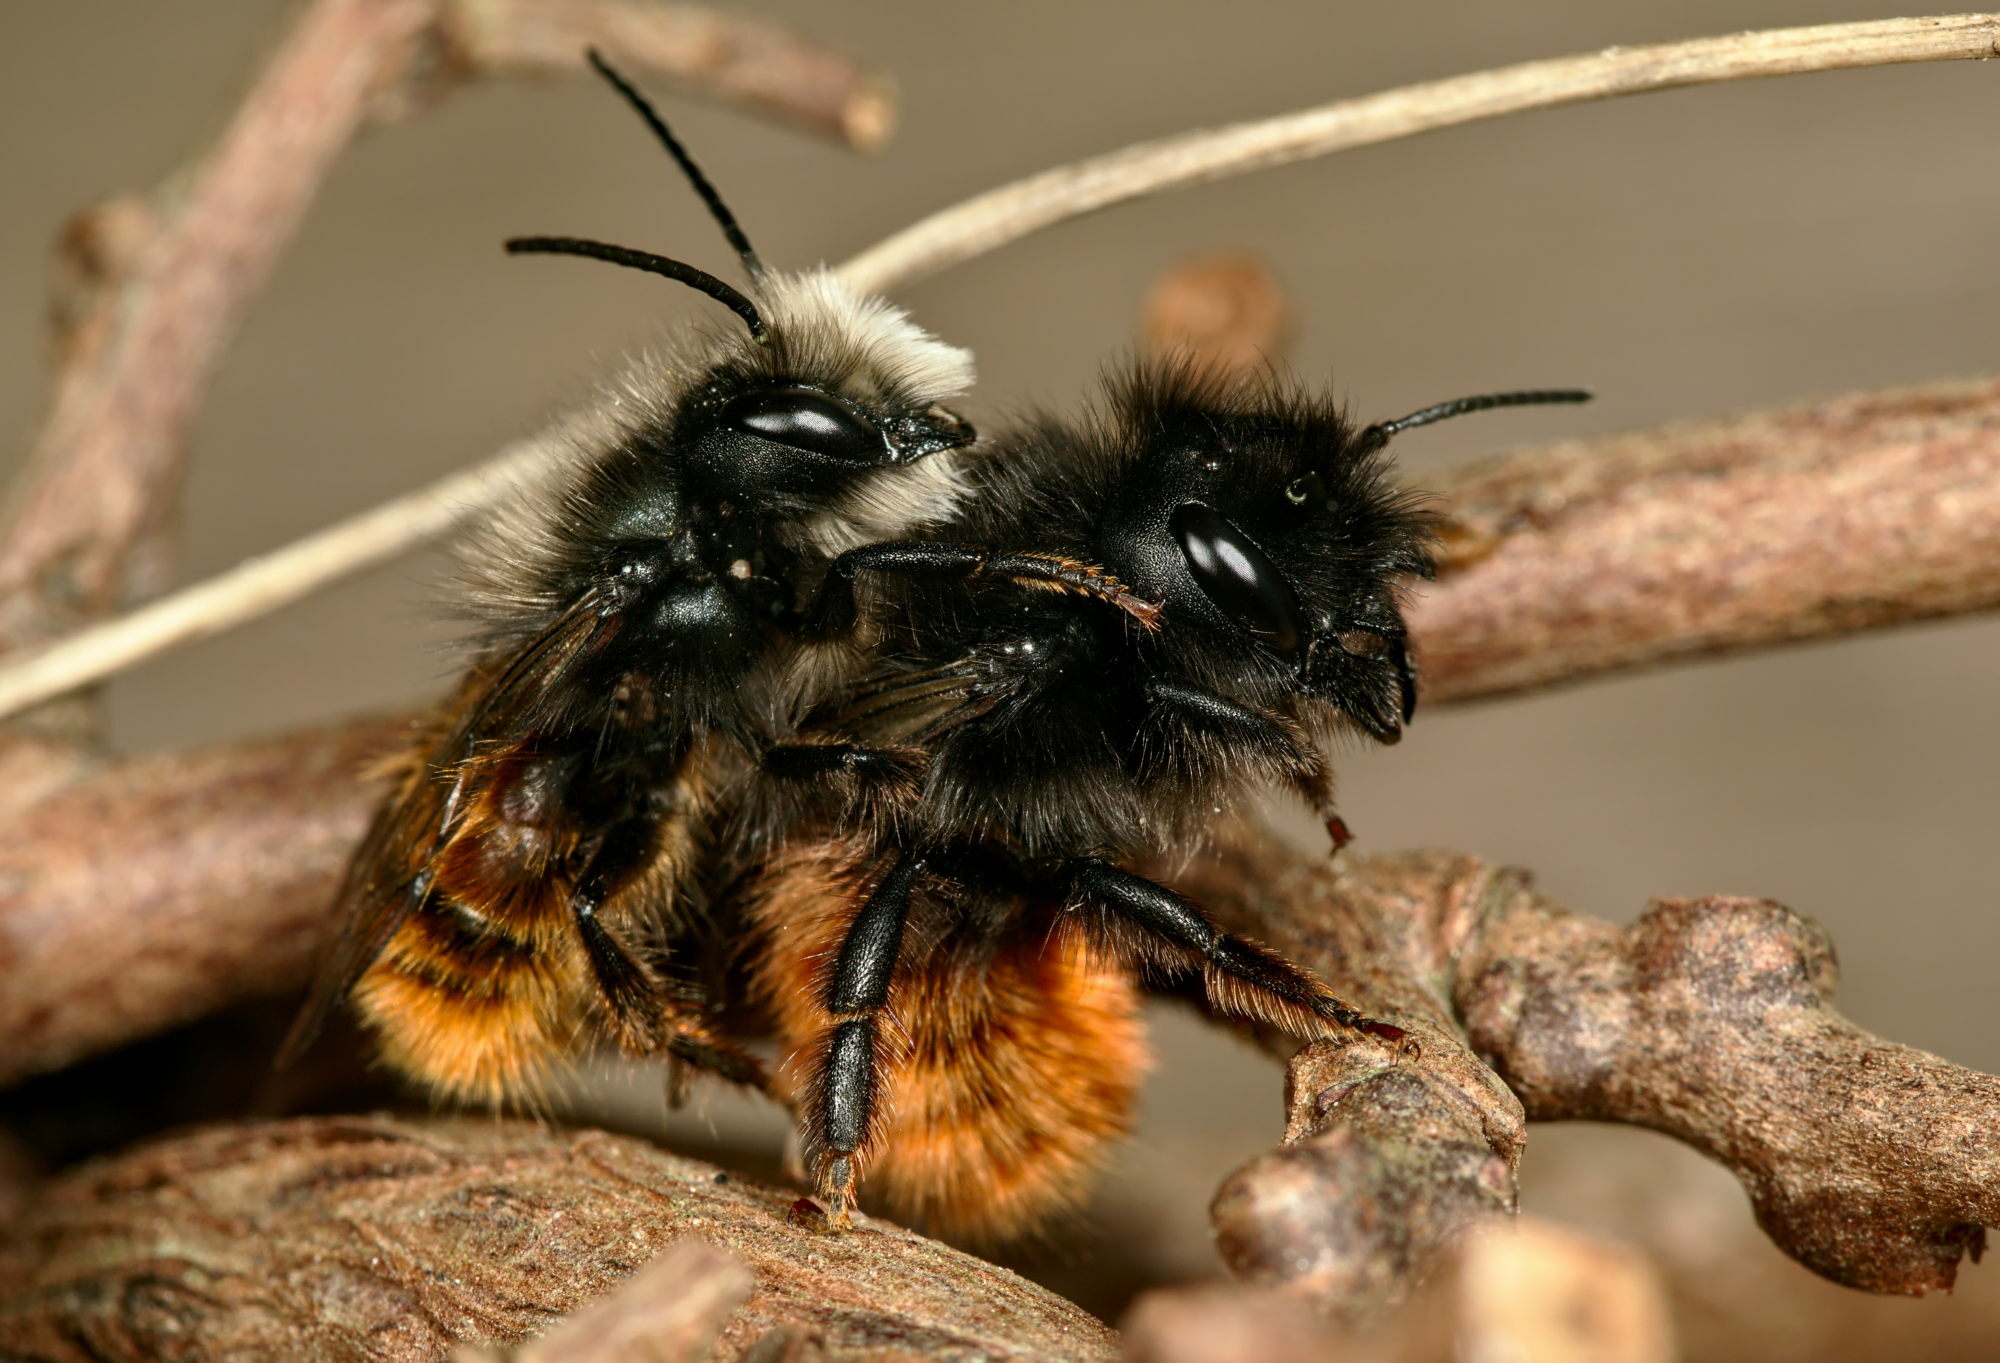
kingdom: Animalia
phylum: Arthropoda
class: Insecta
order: Hymenoptera
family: Megachilidae
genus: Osmia
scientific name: Osmia cornuta
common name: Mason bee
